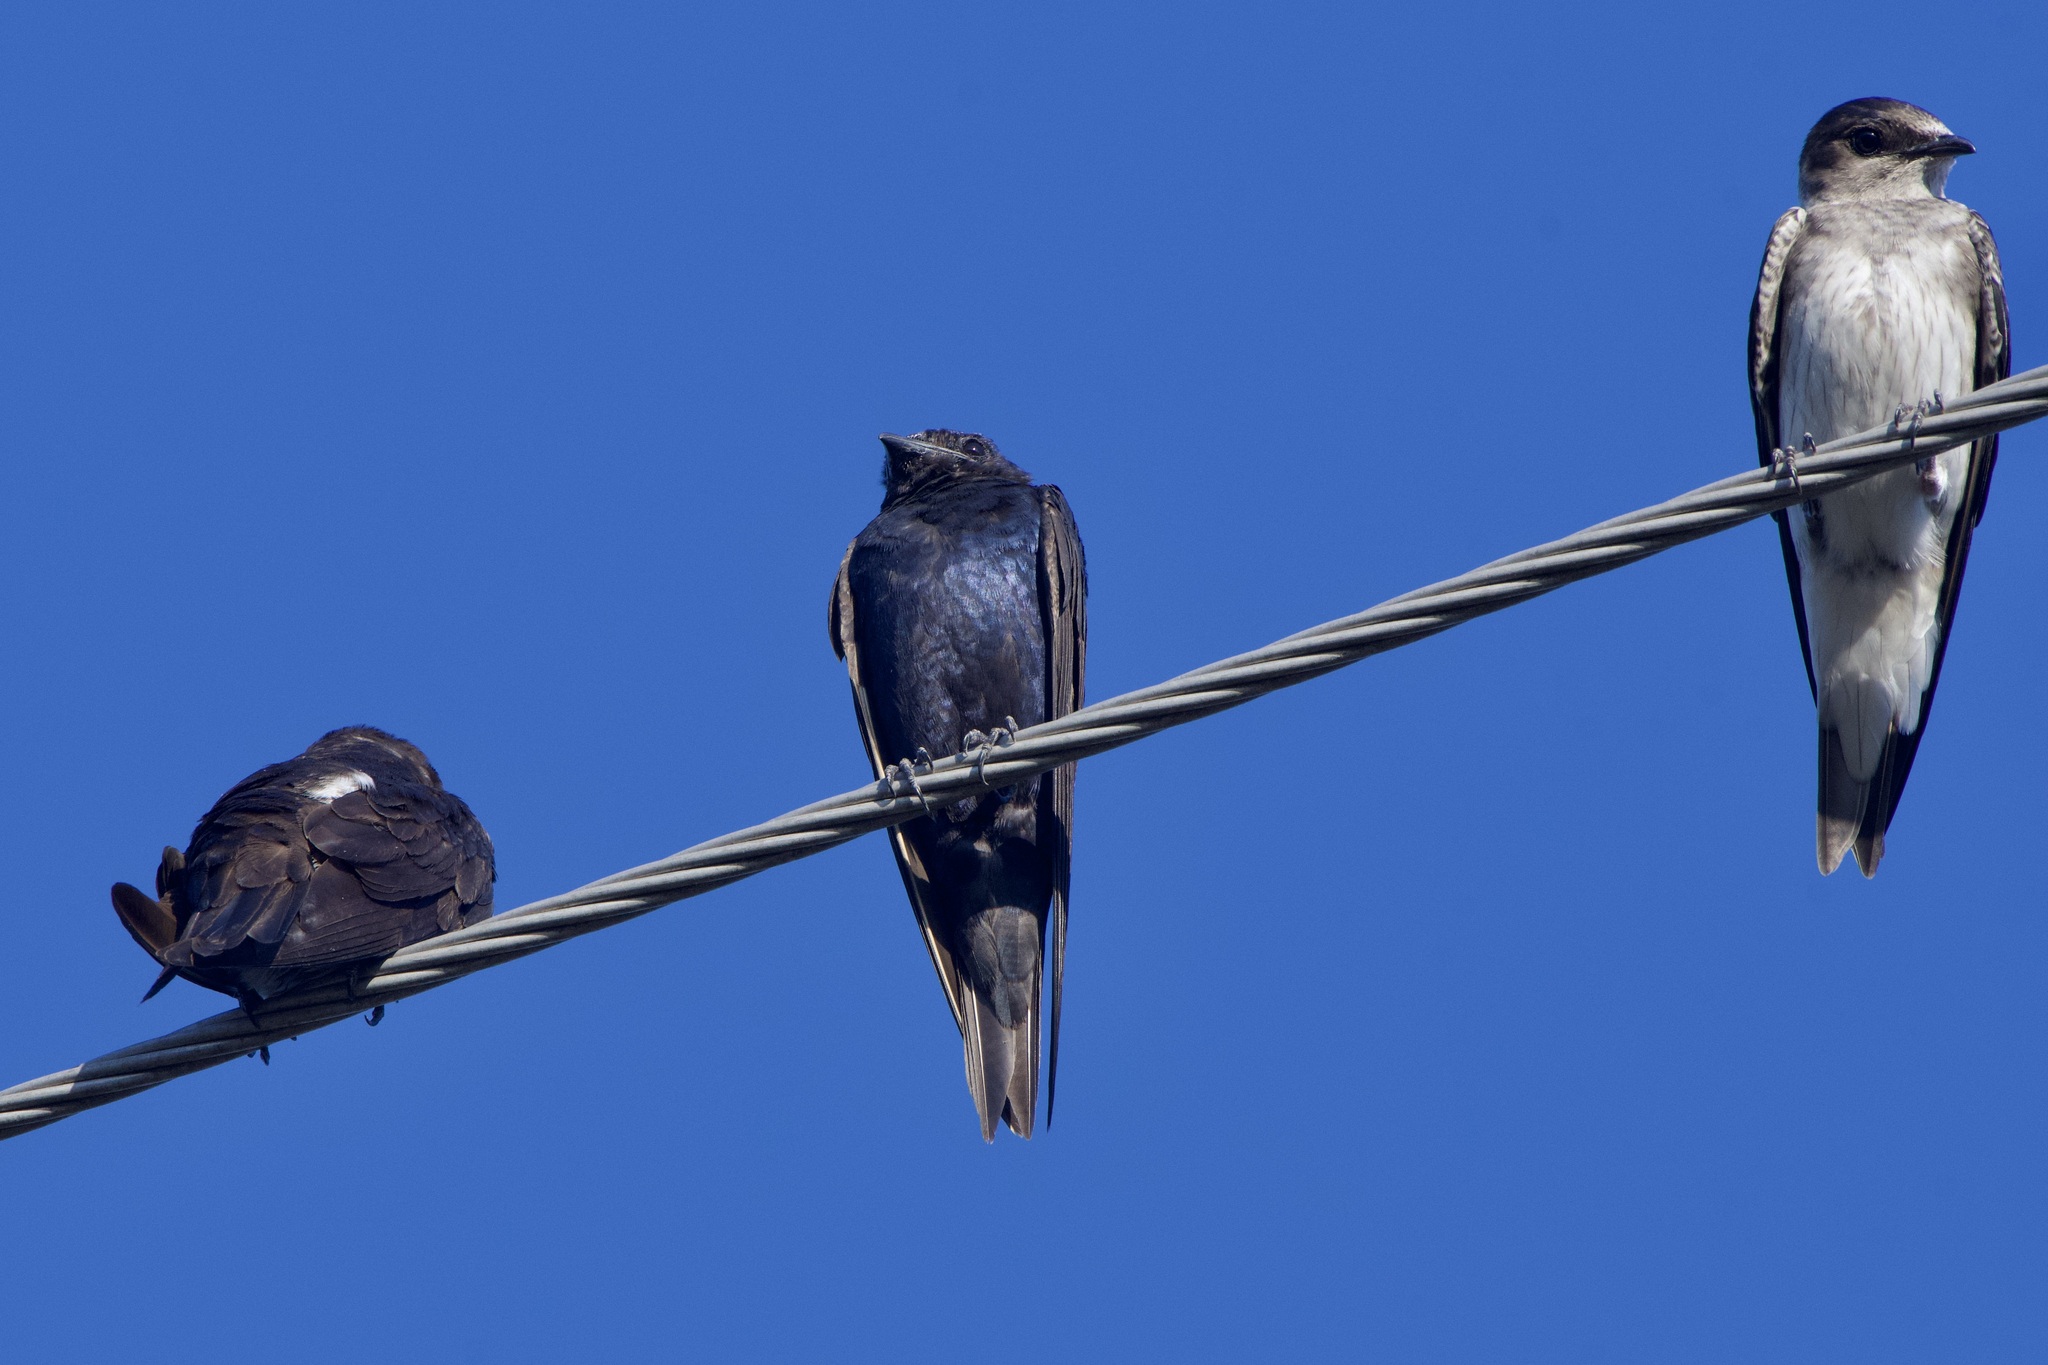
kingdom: Animalia
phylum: Chordata
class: Aves
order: Passeriformes
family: Hirundinidae
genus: Progne
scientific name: Progne subis
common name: Purple martin
